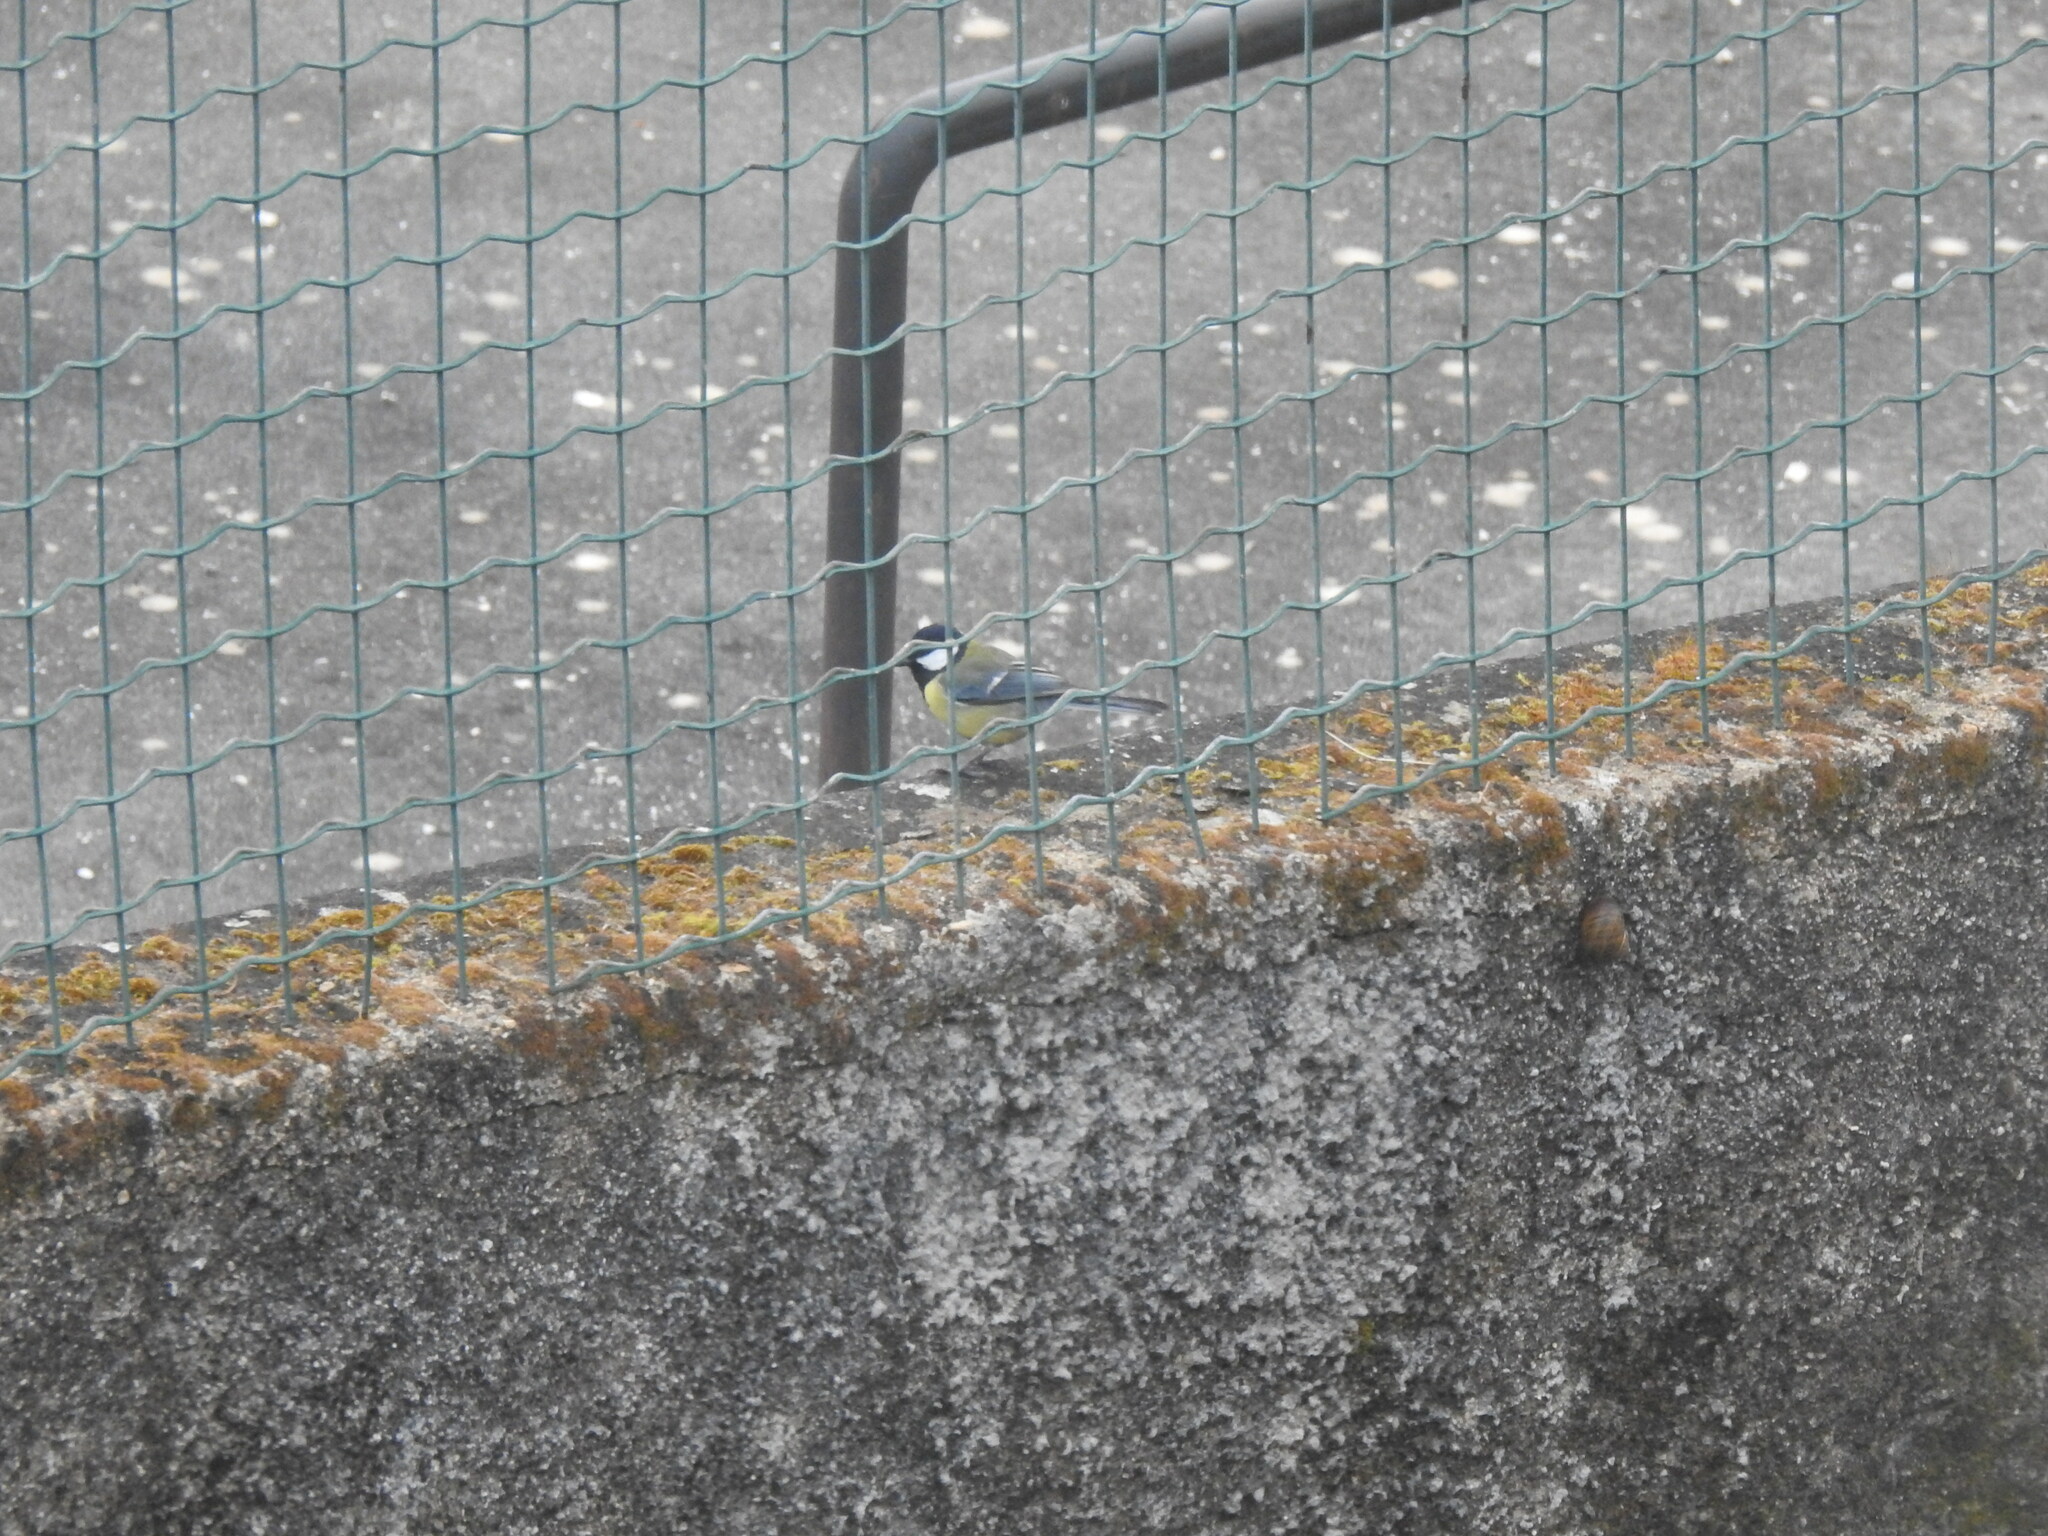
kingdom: Animalia
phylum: Chordata
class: Aves
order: Passeriformes
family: Paridae
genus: Parus
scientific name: Parus major
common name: Great tit
